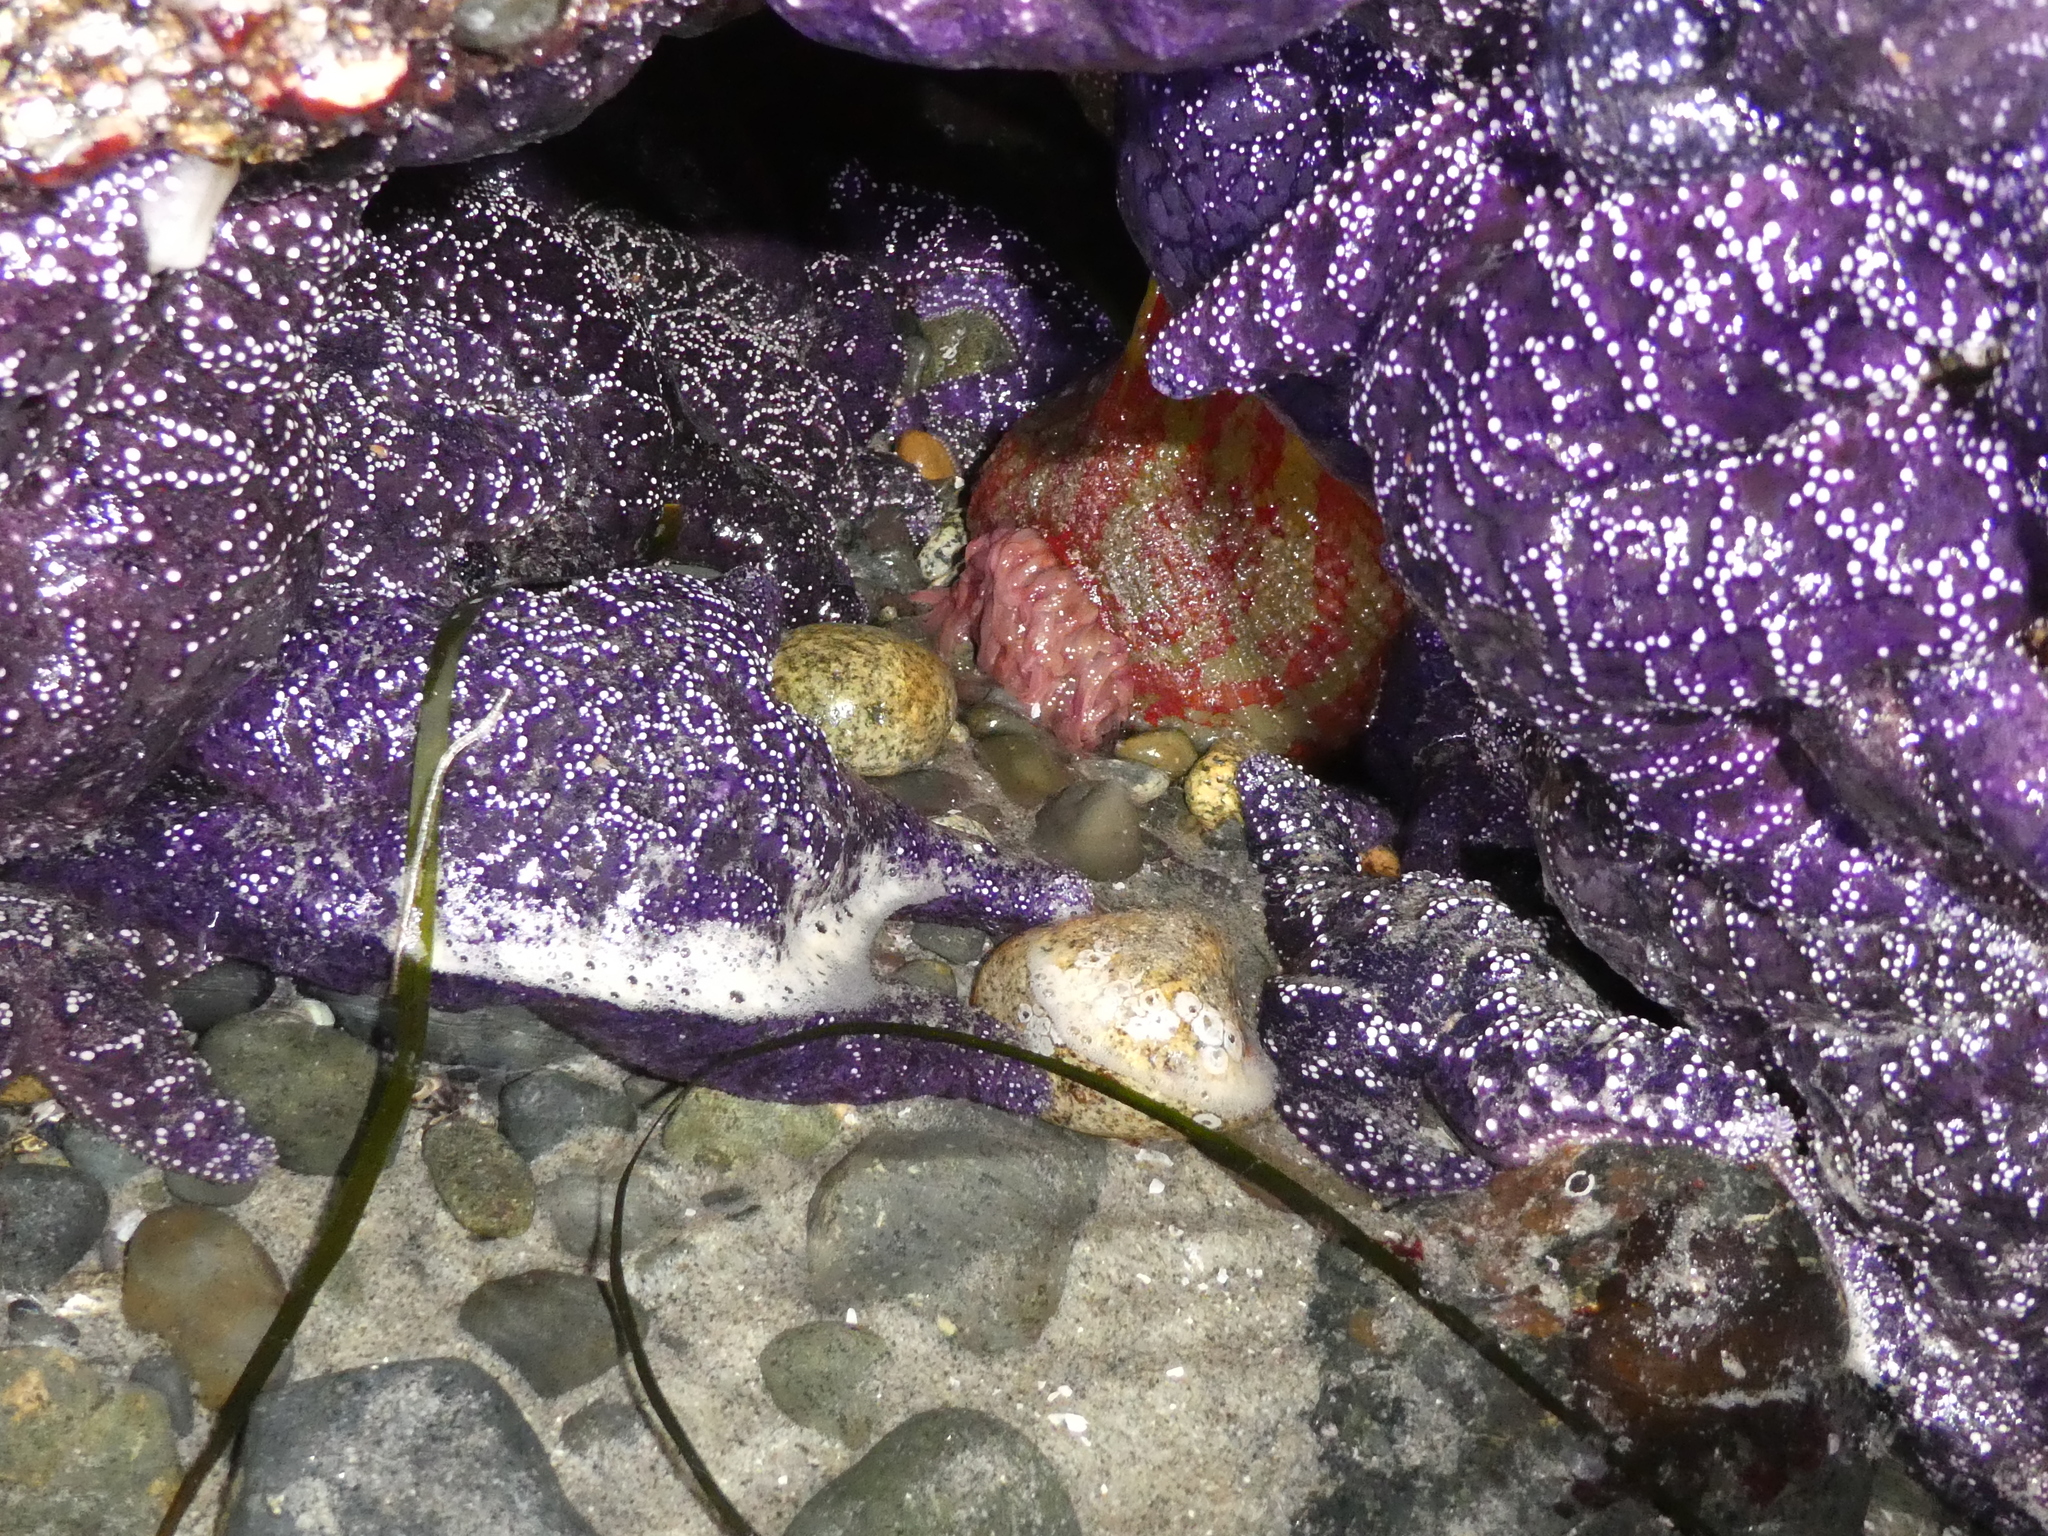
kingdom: Animalia
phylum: Cnidaria
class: Anthozoa
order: Actiniaria
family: Actiniidae
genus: Urticina
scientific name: Urticina grebelnyi
